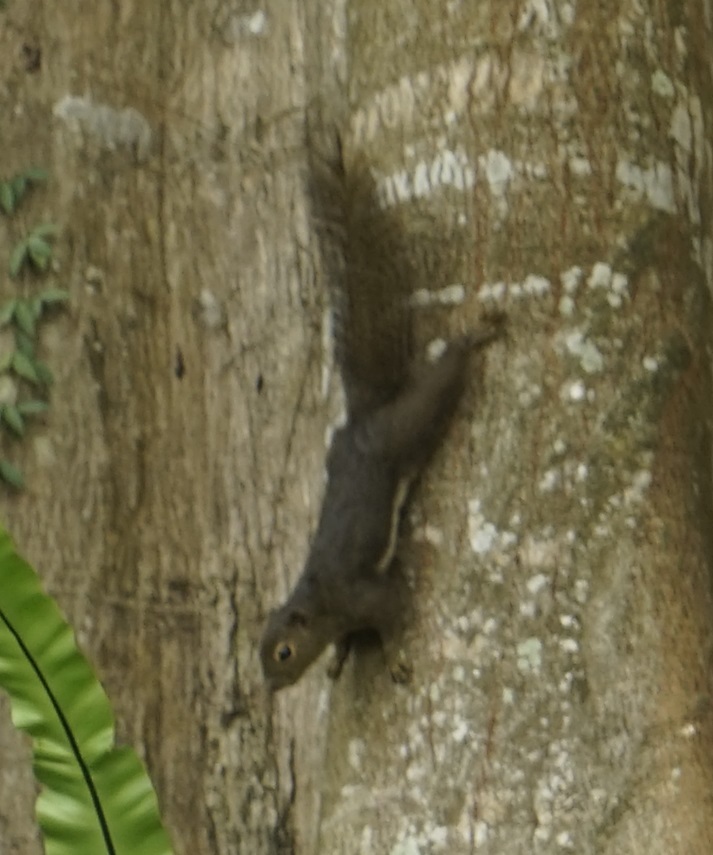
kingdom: Animalia
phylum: Chordata
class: Mammalia
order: Rodentia
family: Sciuridae
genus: Callosciurus
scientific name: Callosciurus notatus
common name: Plantain squirrel
